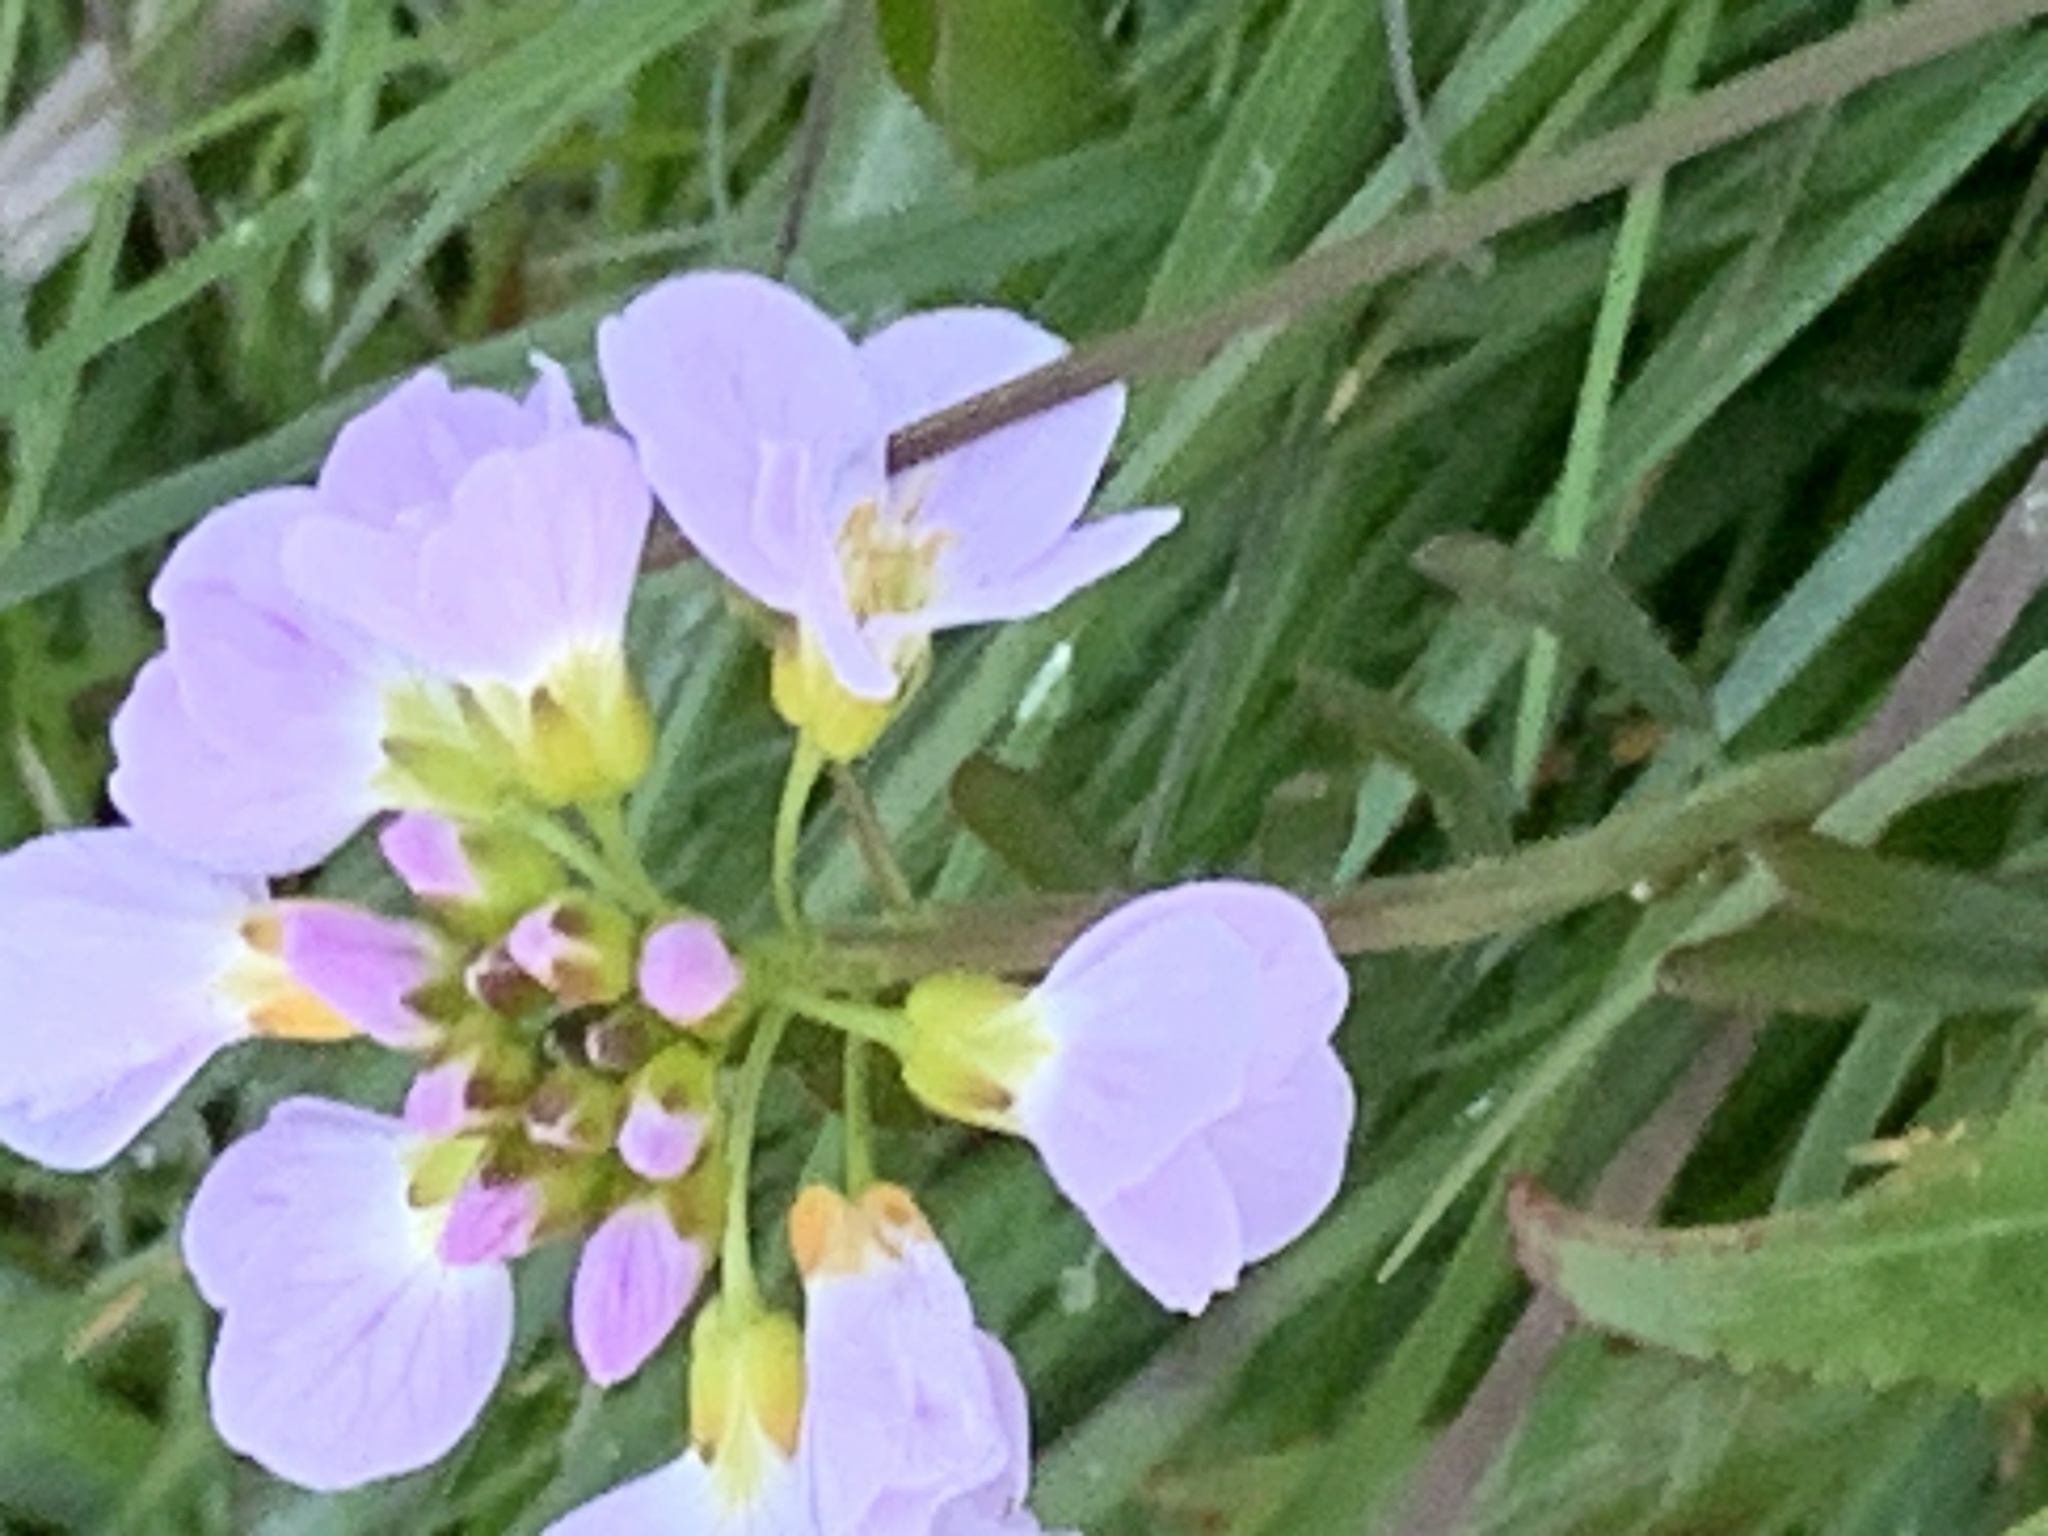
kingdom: Plantae
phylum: Tracheophyta
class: Magnoliopsida
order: Brassicales
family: Brassicaceae
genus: Cardamine
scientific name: Cardamine pratensis
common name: Cuckoo flower
